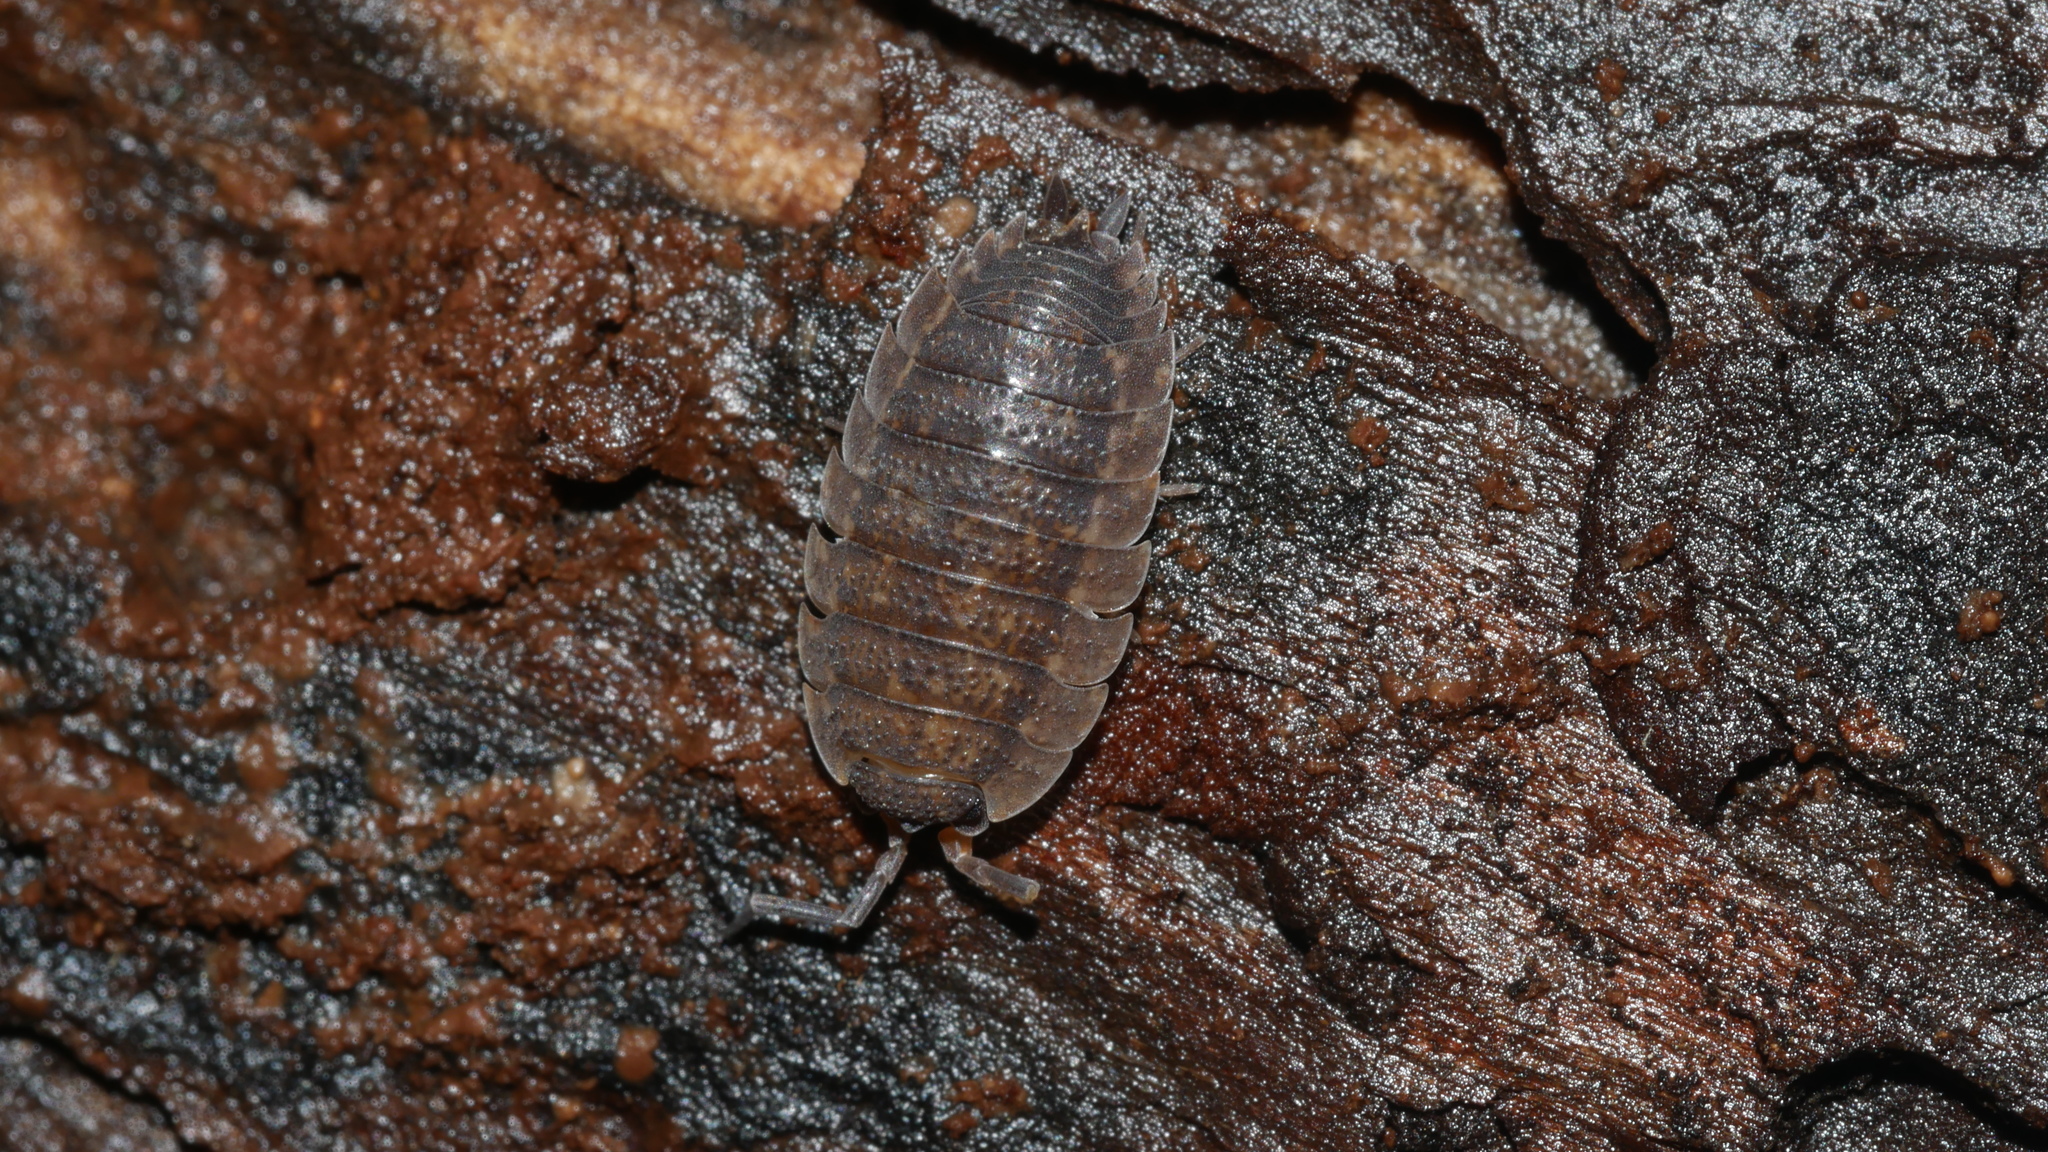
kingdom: Animalia
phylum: Arthropoda
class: Malacostraca
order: Isopoda
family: Porcellionidae
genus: Porcellio
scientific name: Porcellio scaber
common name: Common rough woodlouse
